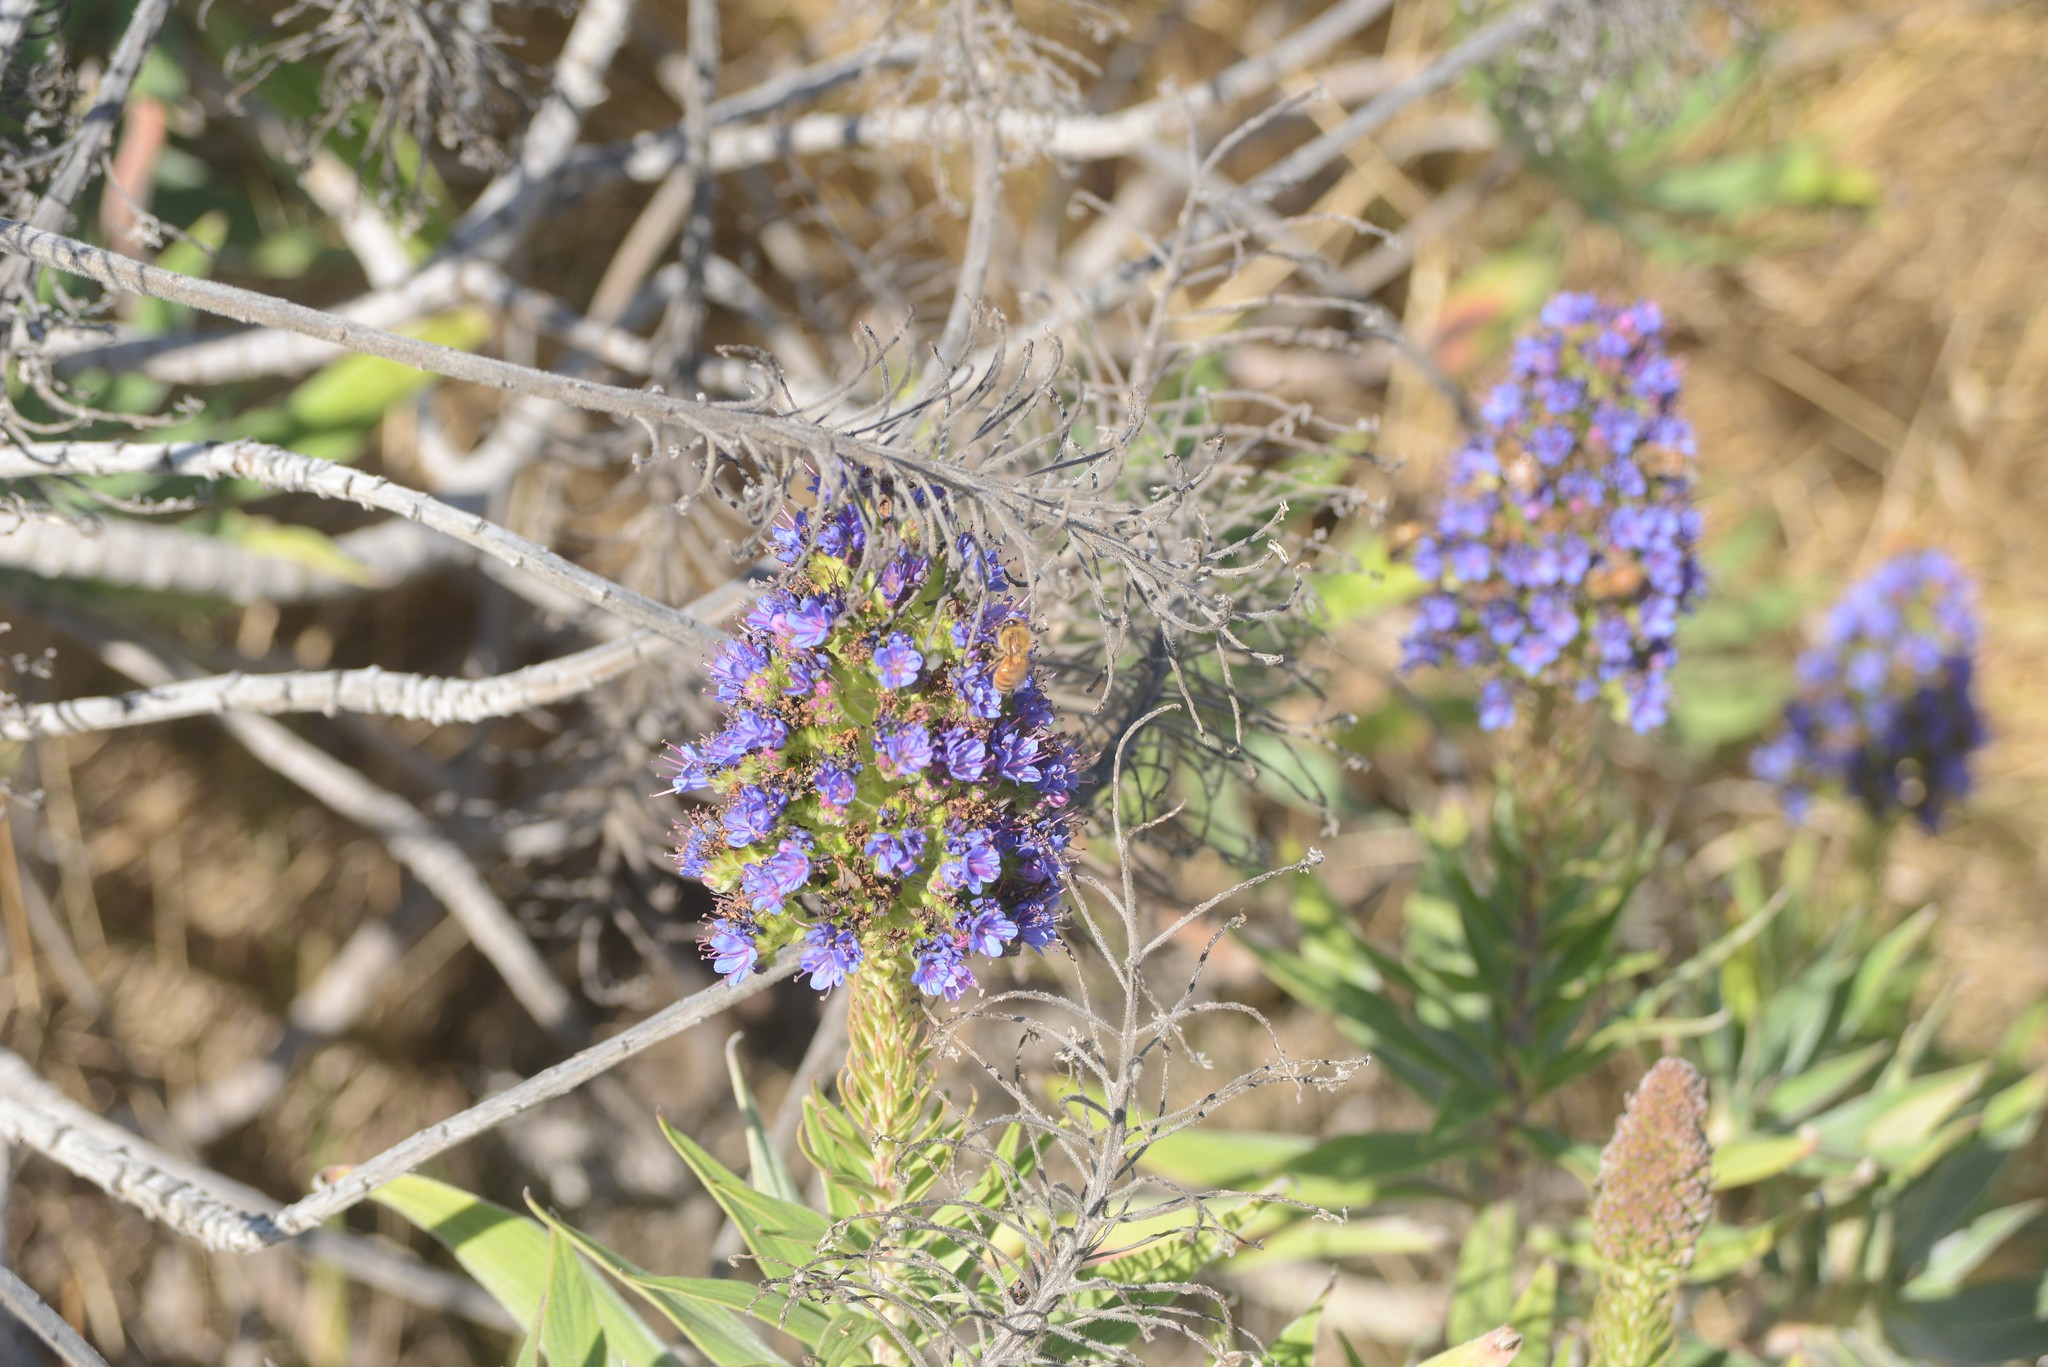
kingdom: Plantae
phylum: Tracheophyta
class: Magnoliopsida
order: Boraginales
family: Boraginaceae
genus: Echium
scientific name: Echium candicans
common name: Pride of madeira
